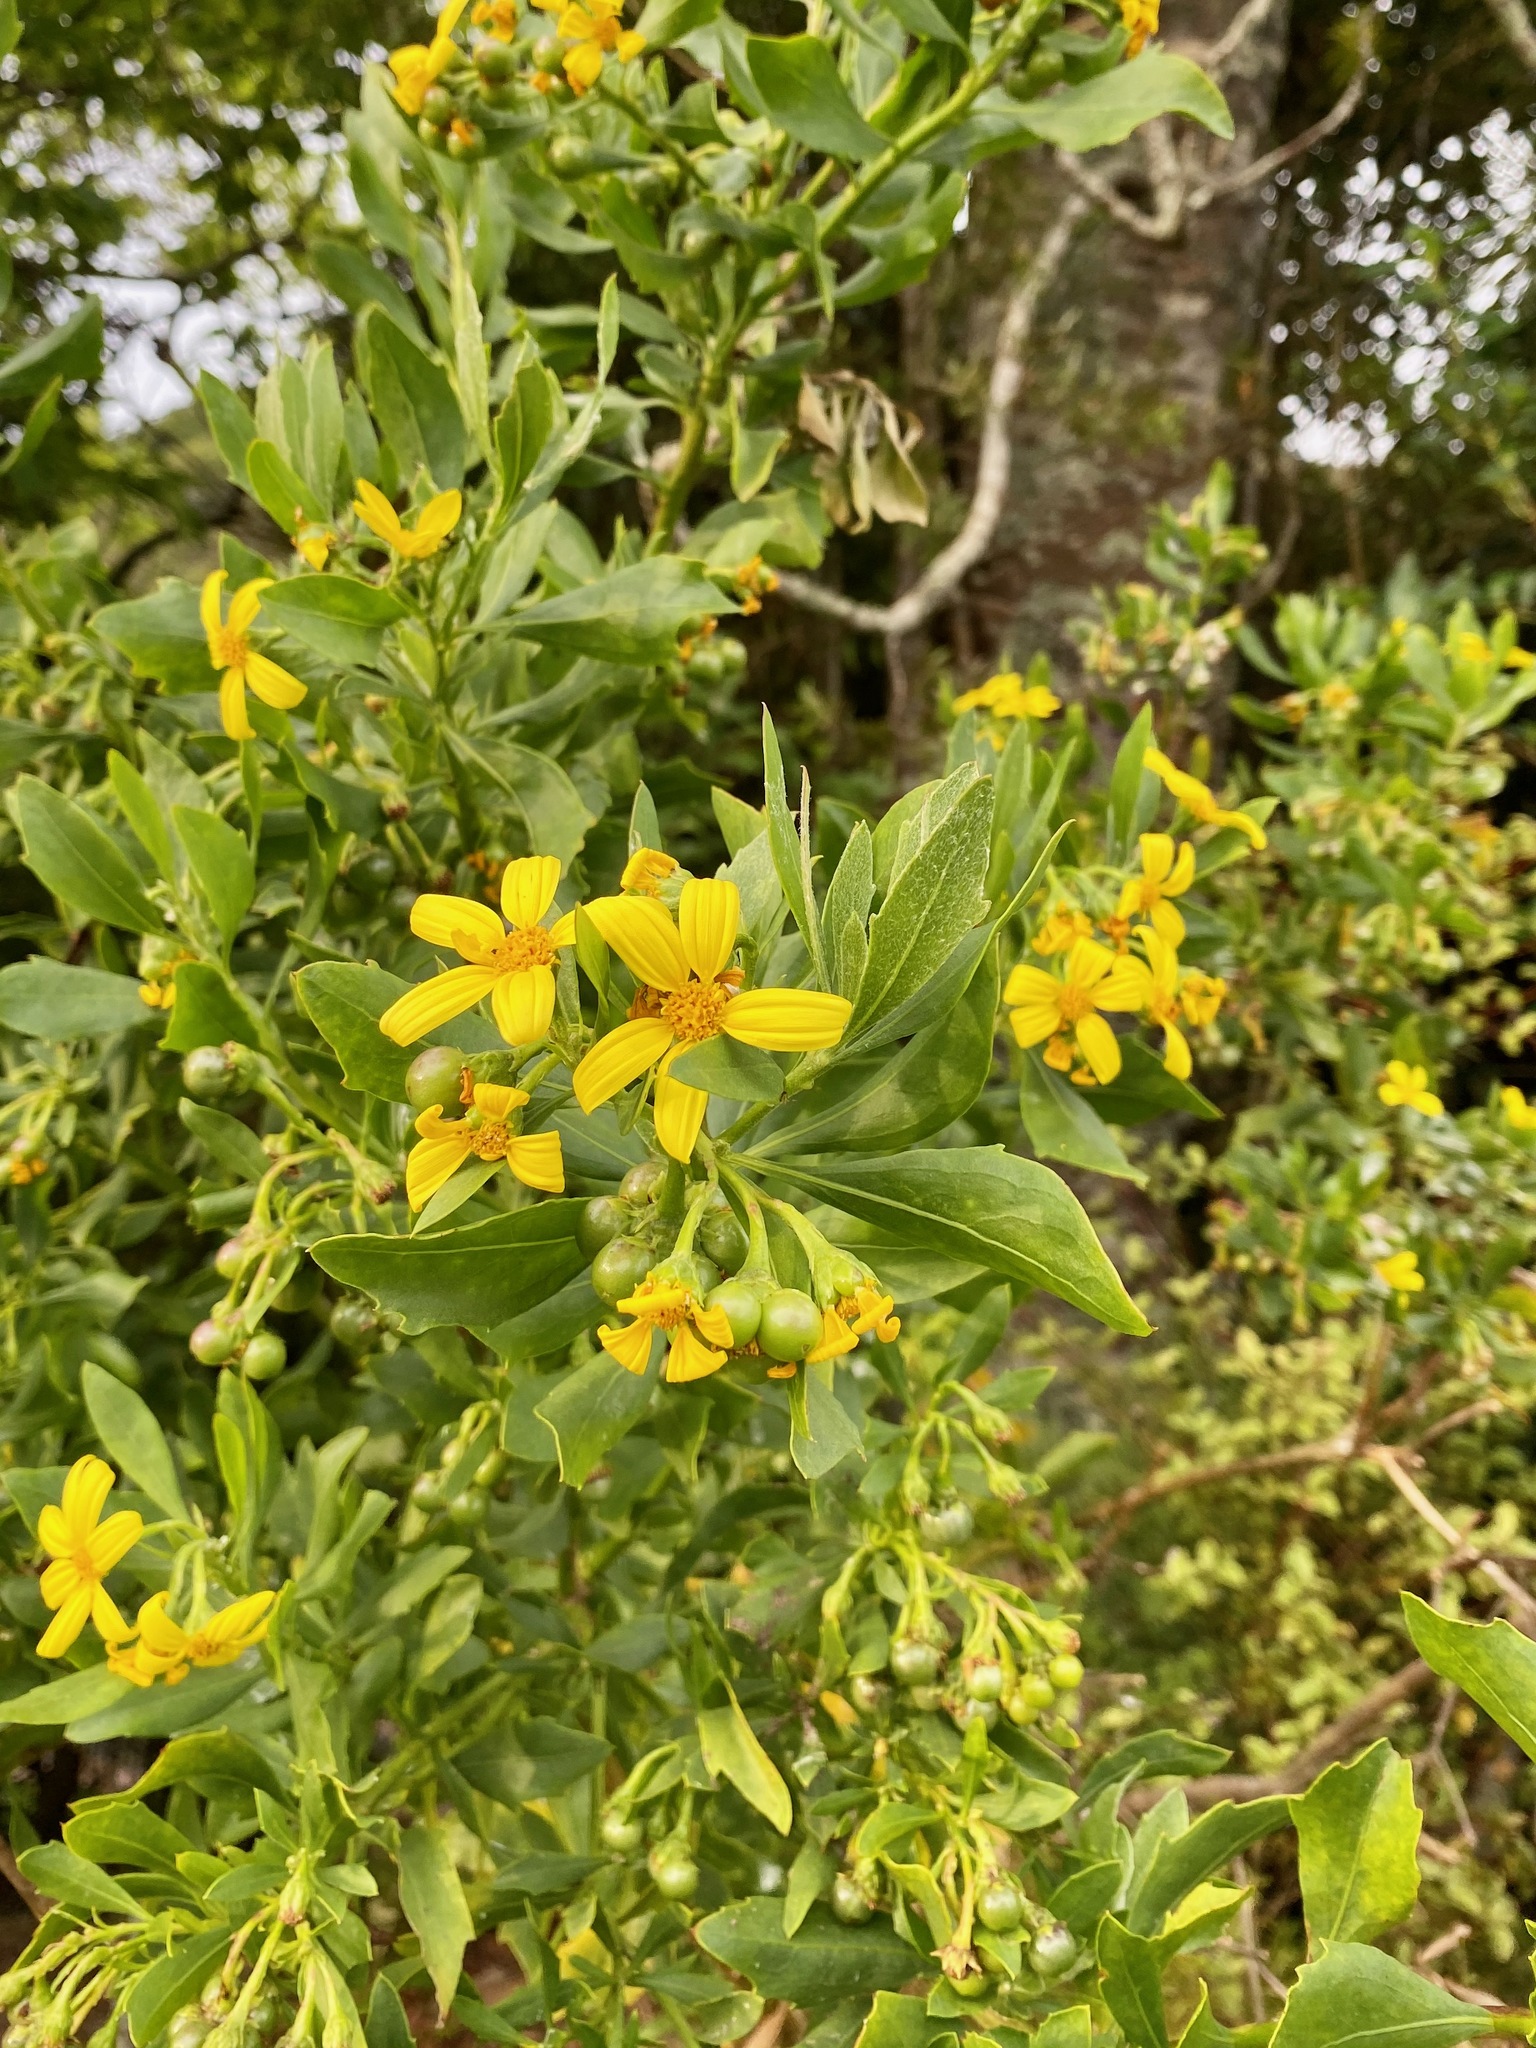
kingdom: Plantae
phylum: Tracheophyta
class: Magnoliopsida
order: Asterales
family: Asteraceae
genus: Osteospermum
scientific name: Osteospermum moniliferum
